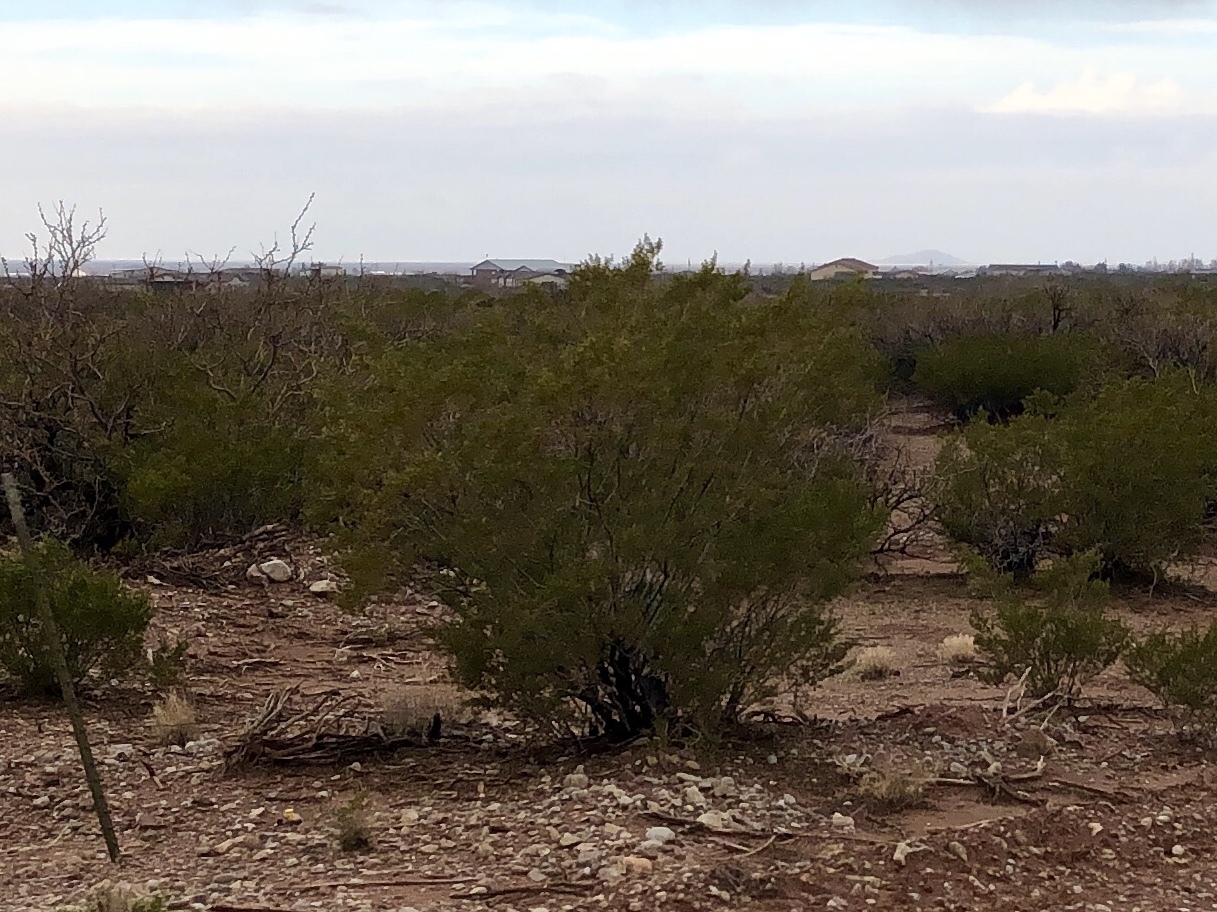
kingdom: Plantae
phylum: Tracheophyta
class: Magnoliopsida
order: Zygophyllales
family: Zygophyllaceae
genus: Larrea
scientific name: Larrea tridentata
